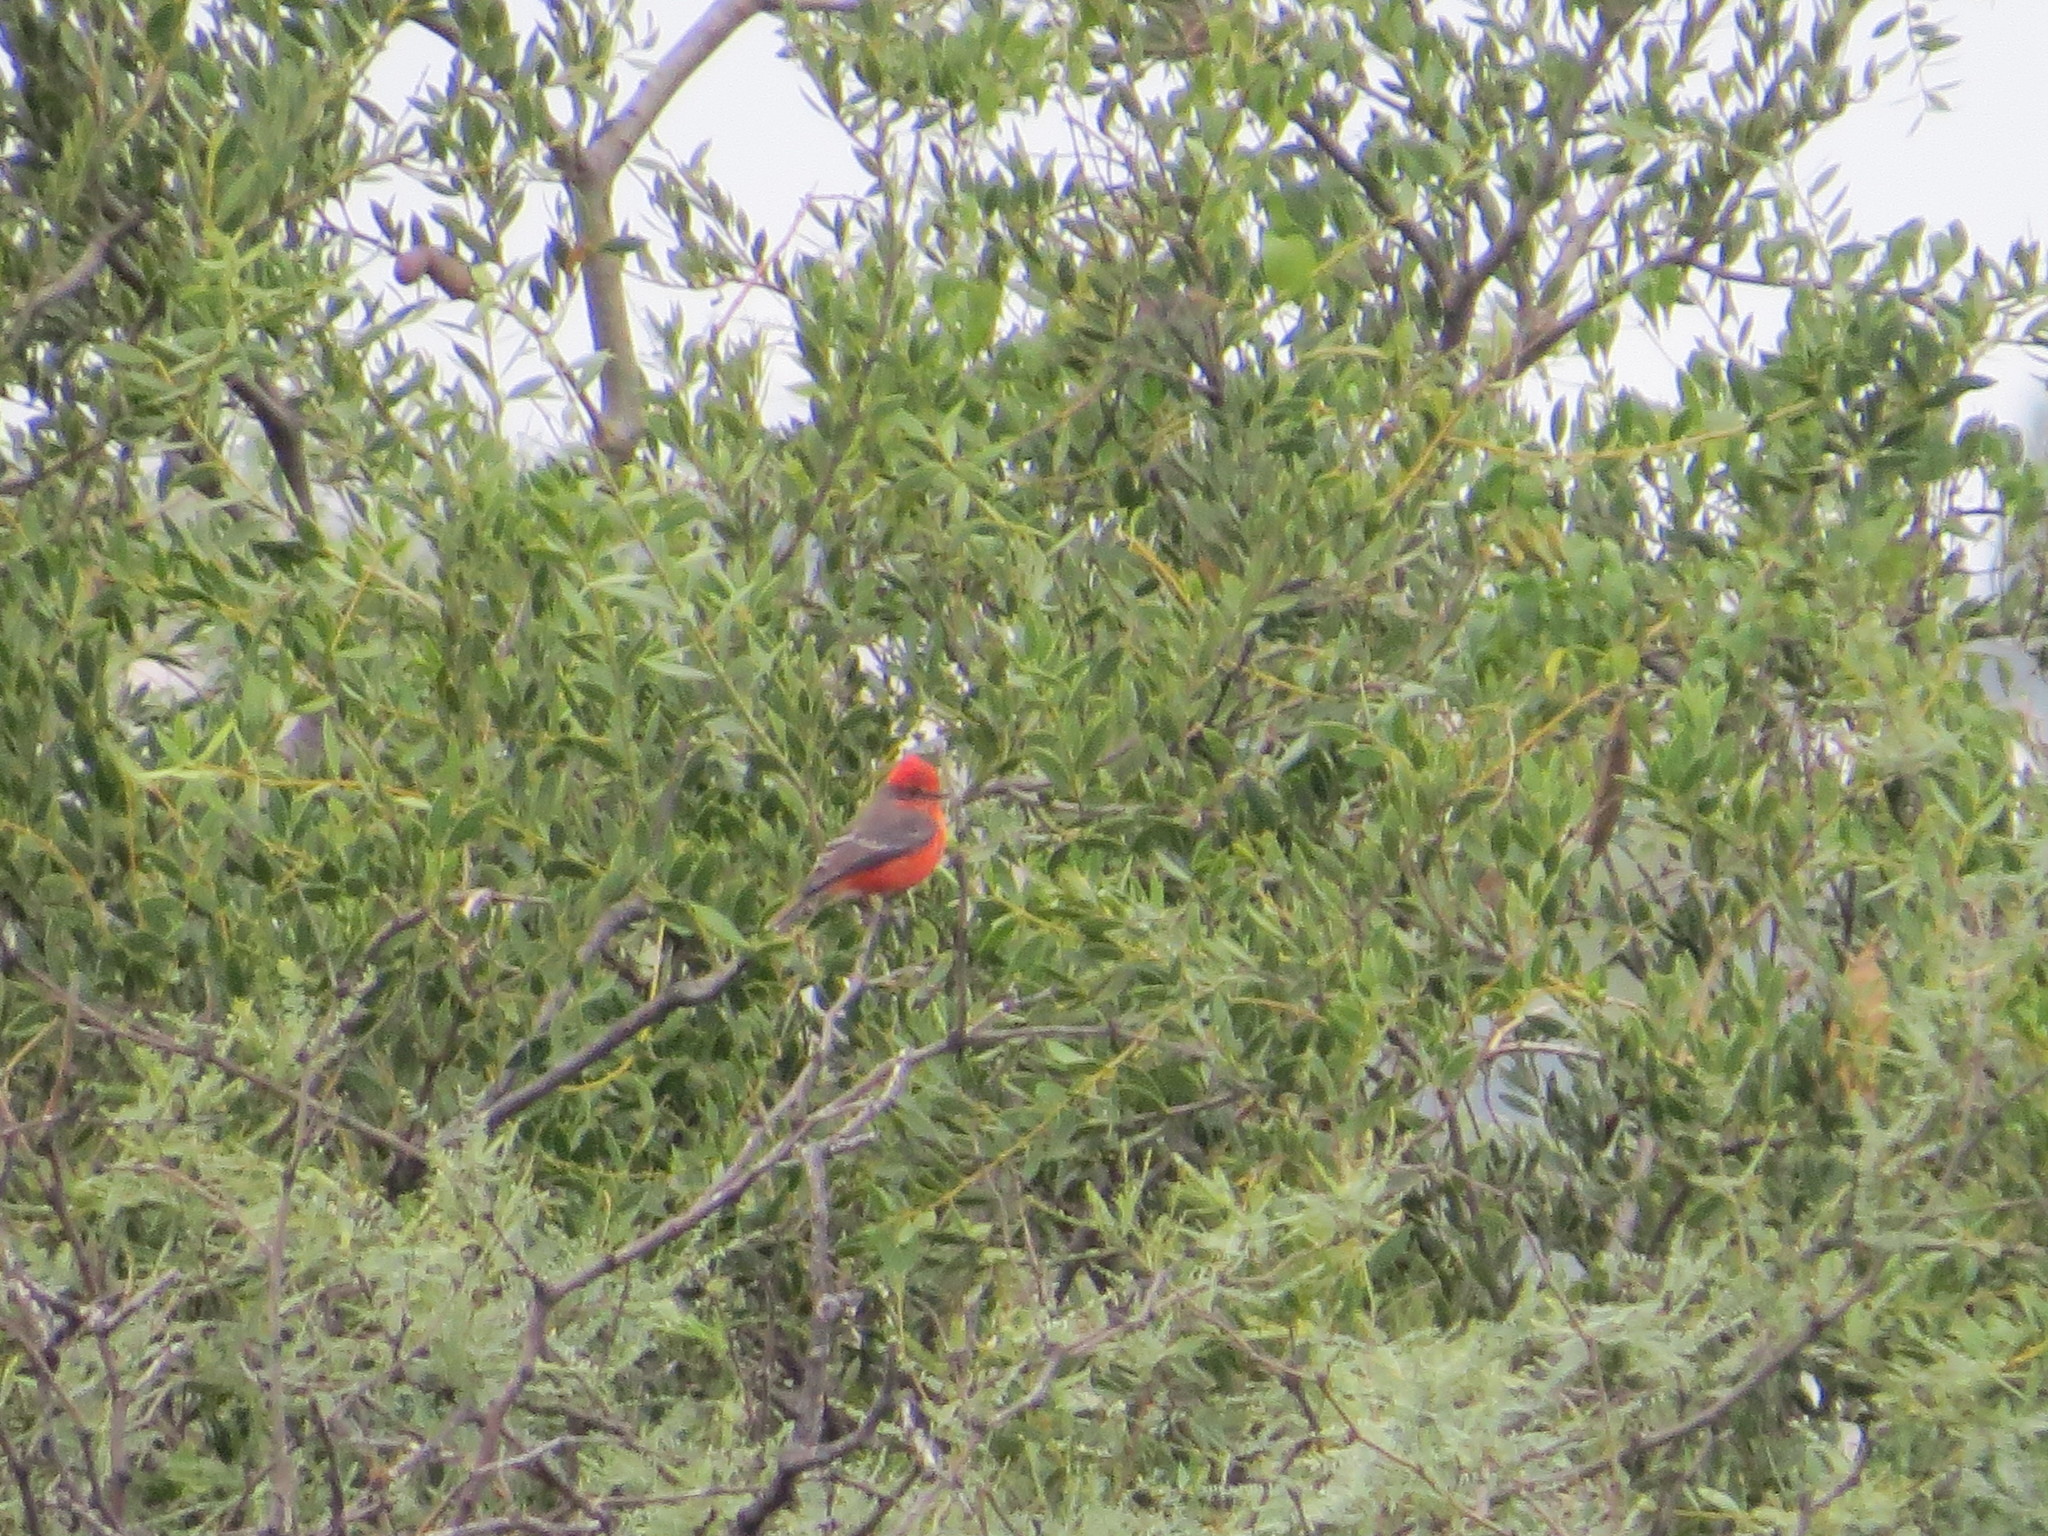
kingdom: Animalia
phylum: Chordata
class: Aves
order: Passeriformes
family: Tyrannidae
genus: Pyrocephalus
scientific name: Pyrocephalus rubinus
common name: Vermilion flycatcher
